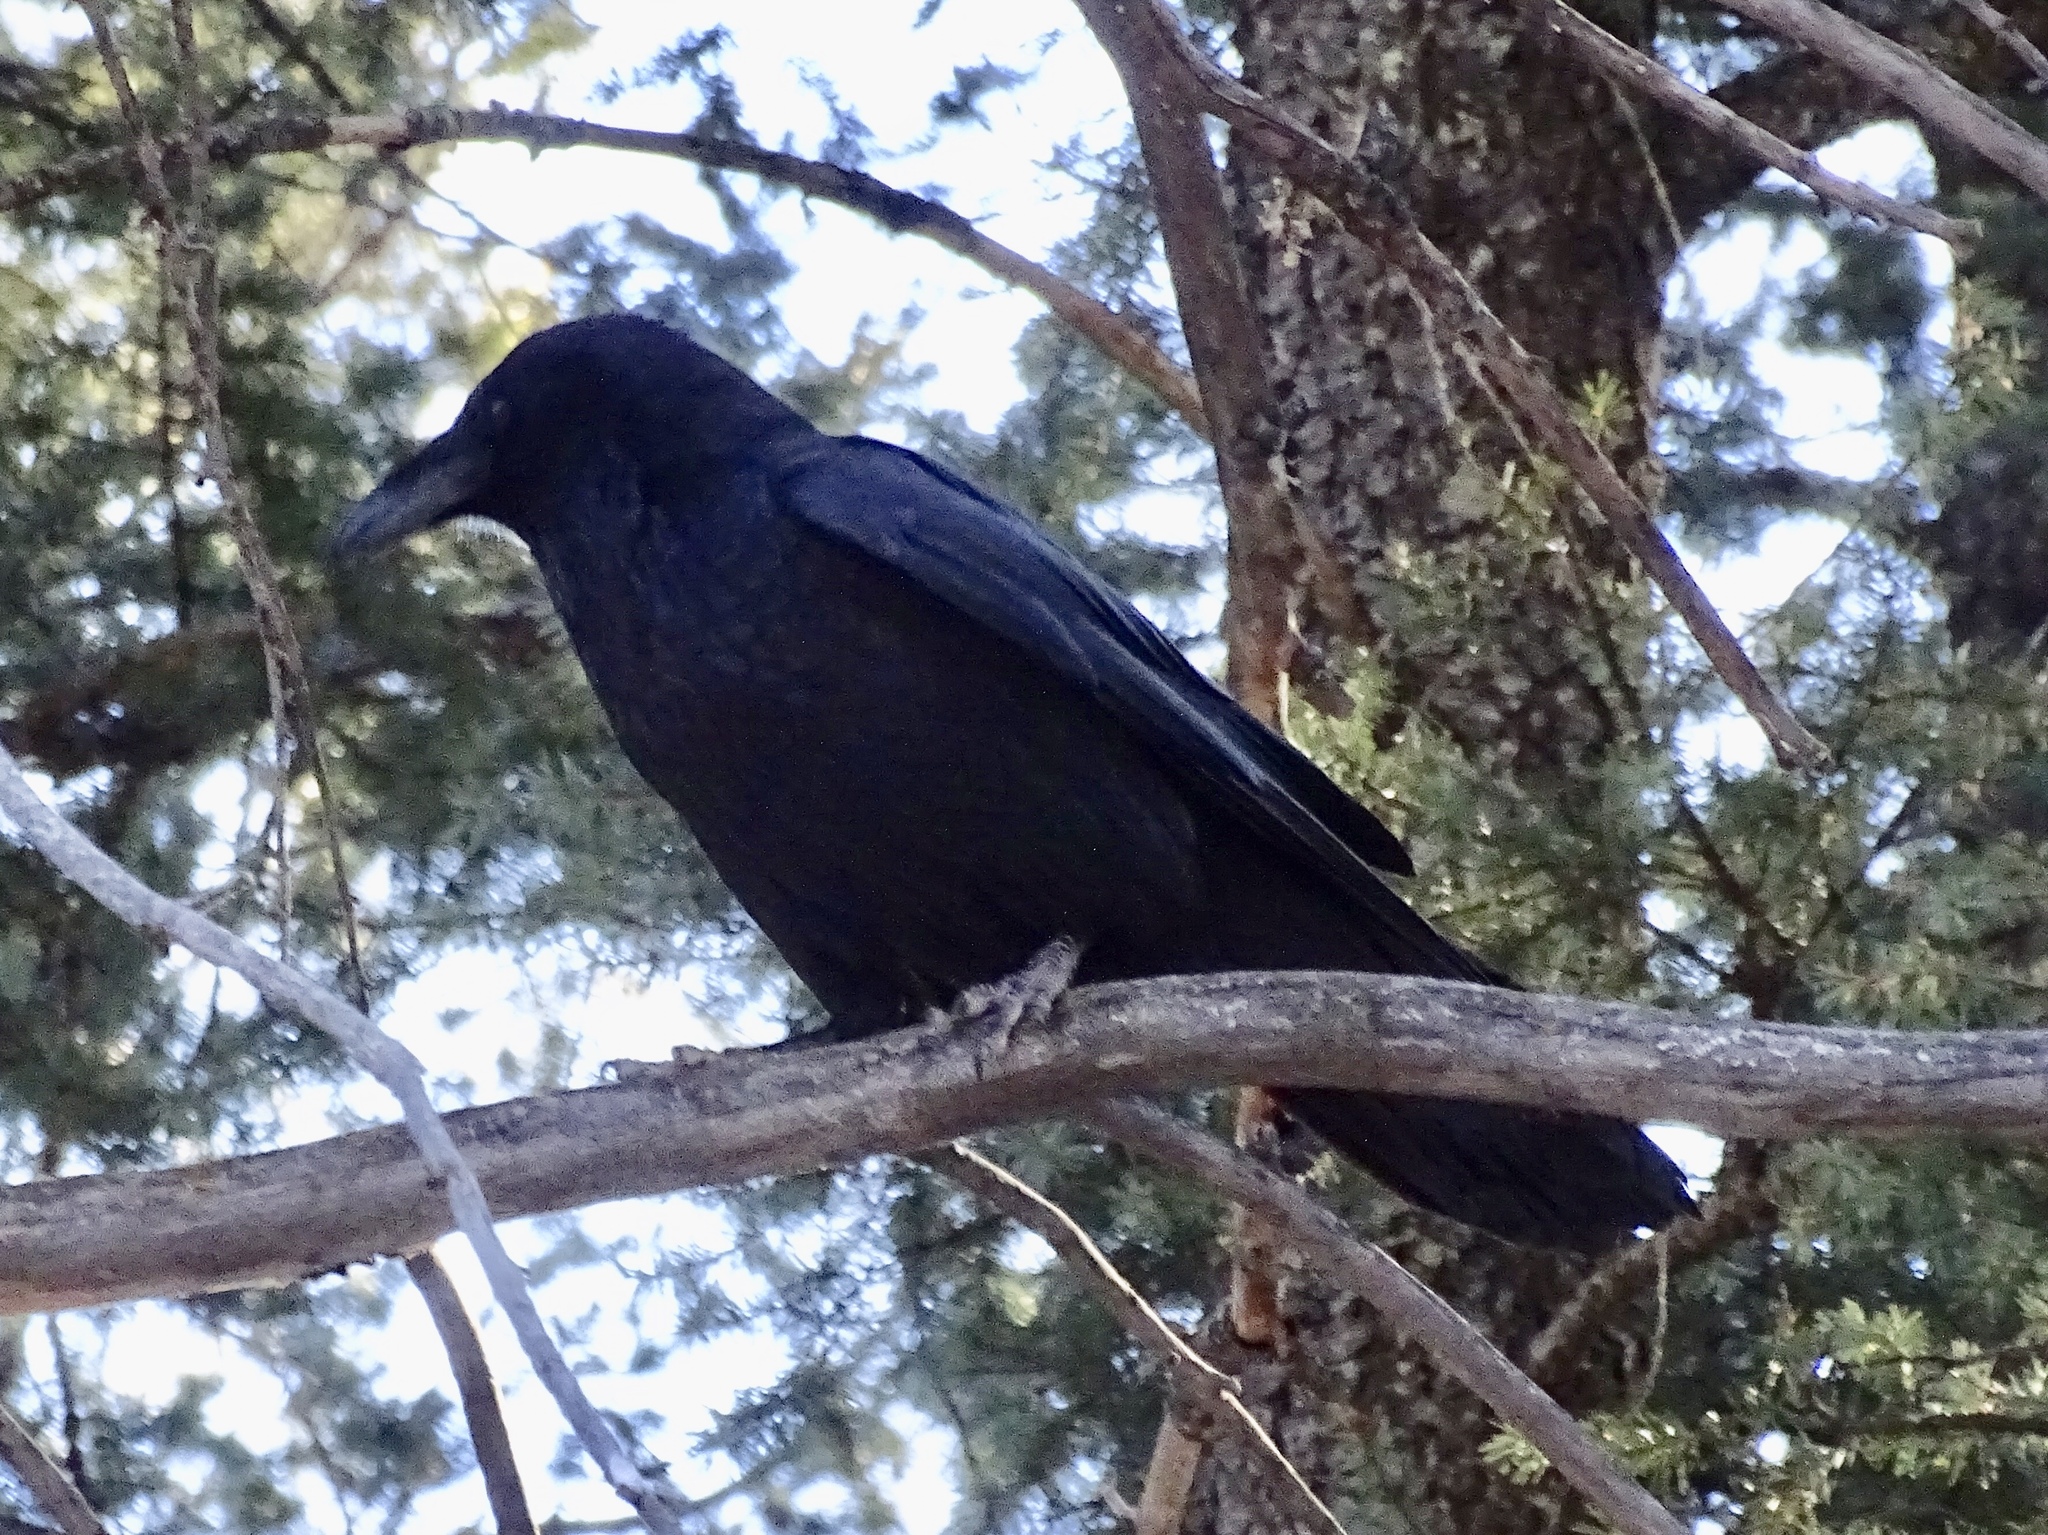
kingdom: Animalia
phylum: Chordata
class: Aves
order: Passeriformes
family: Corvidae
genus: Corvus
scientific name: Corvus corax
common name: Common raven
